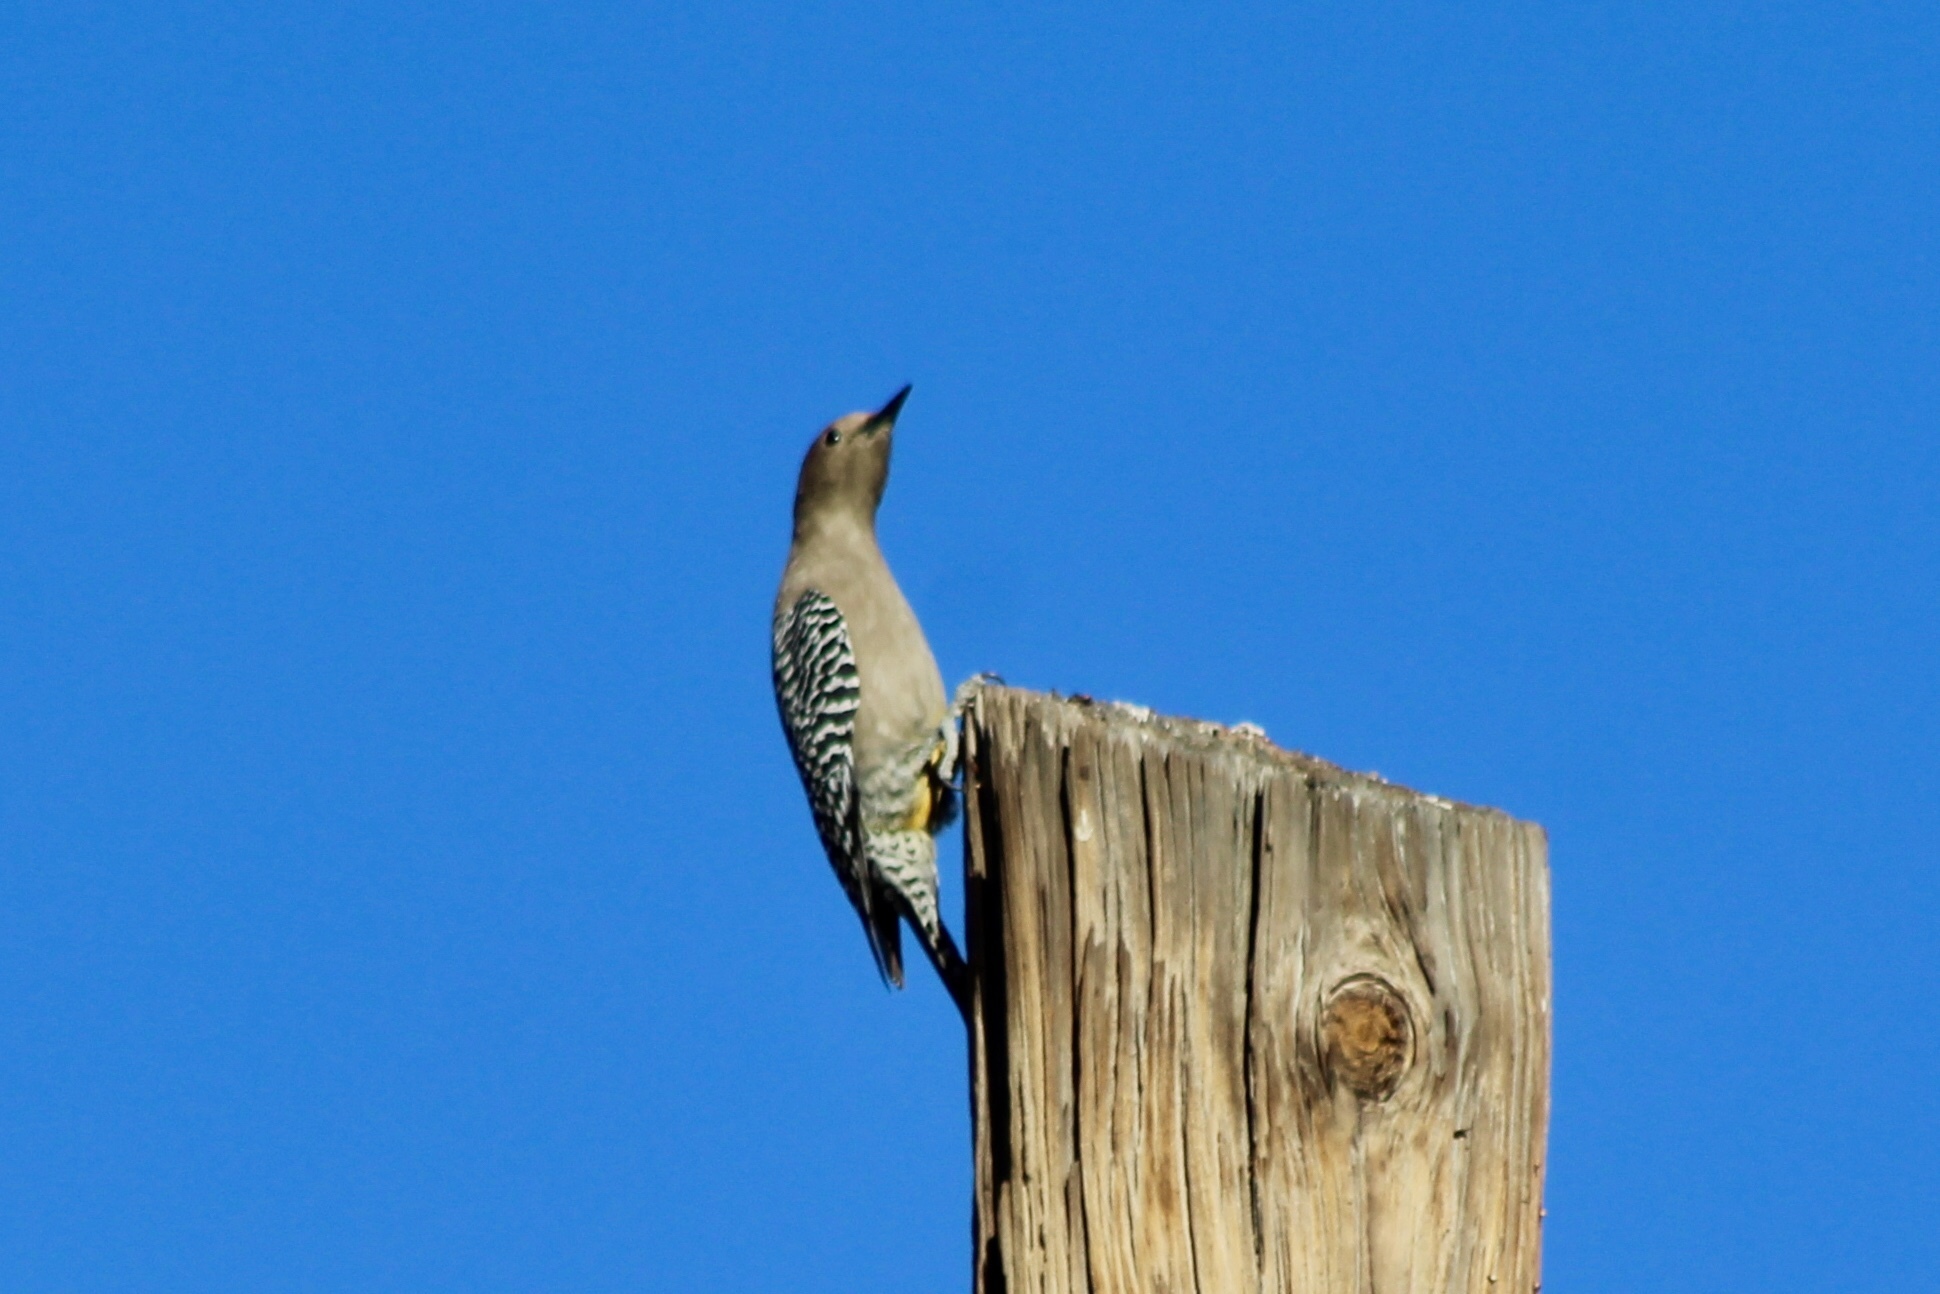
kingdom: Animalia
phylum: Chordata
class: Aves
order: Piciformes
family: Picidae
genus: Melanerpes
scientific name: Melanerpes uropygialis
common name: Gila woodpecker
